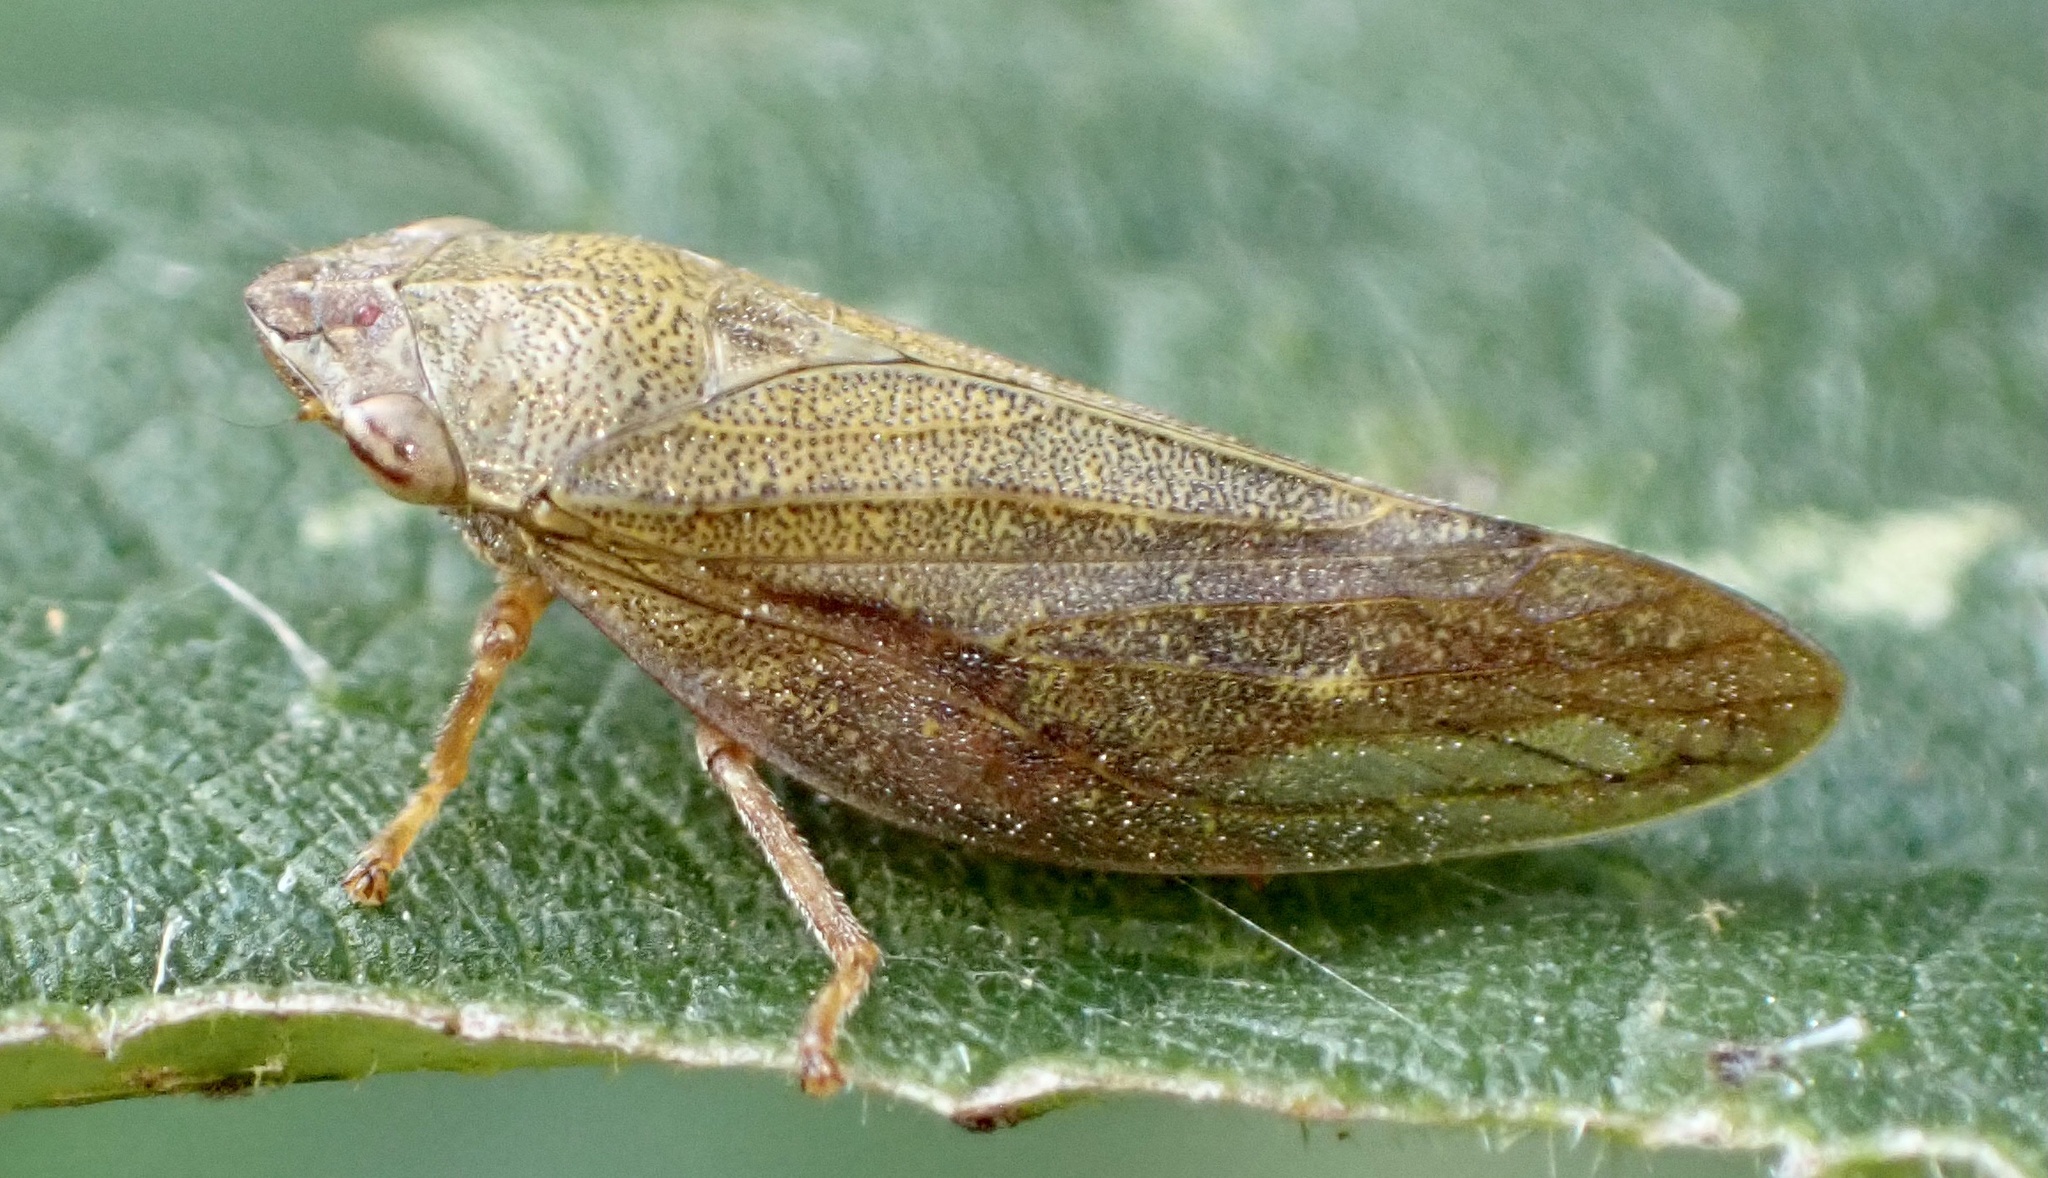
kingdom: Animalia
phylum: Arthropoda
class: Insecta
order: Hemiptera
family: Aphrophoridae
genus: Aphrophora
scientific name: Aphrophora salicina
